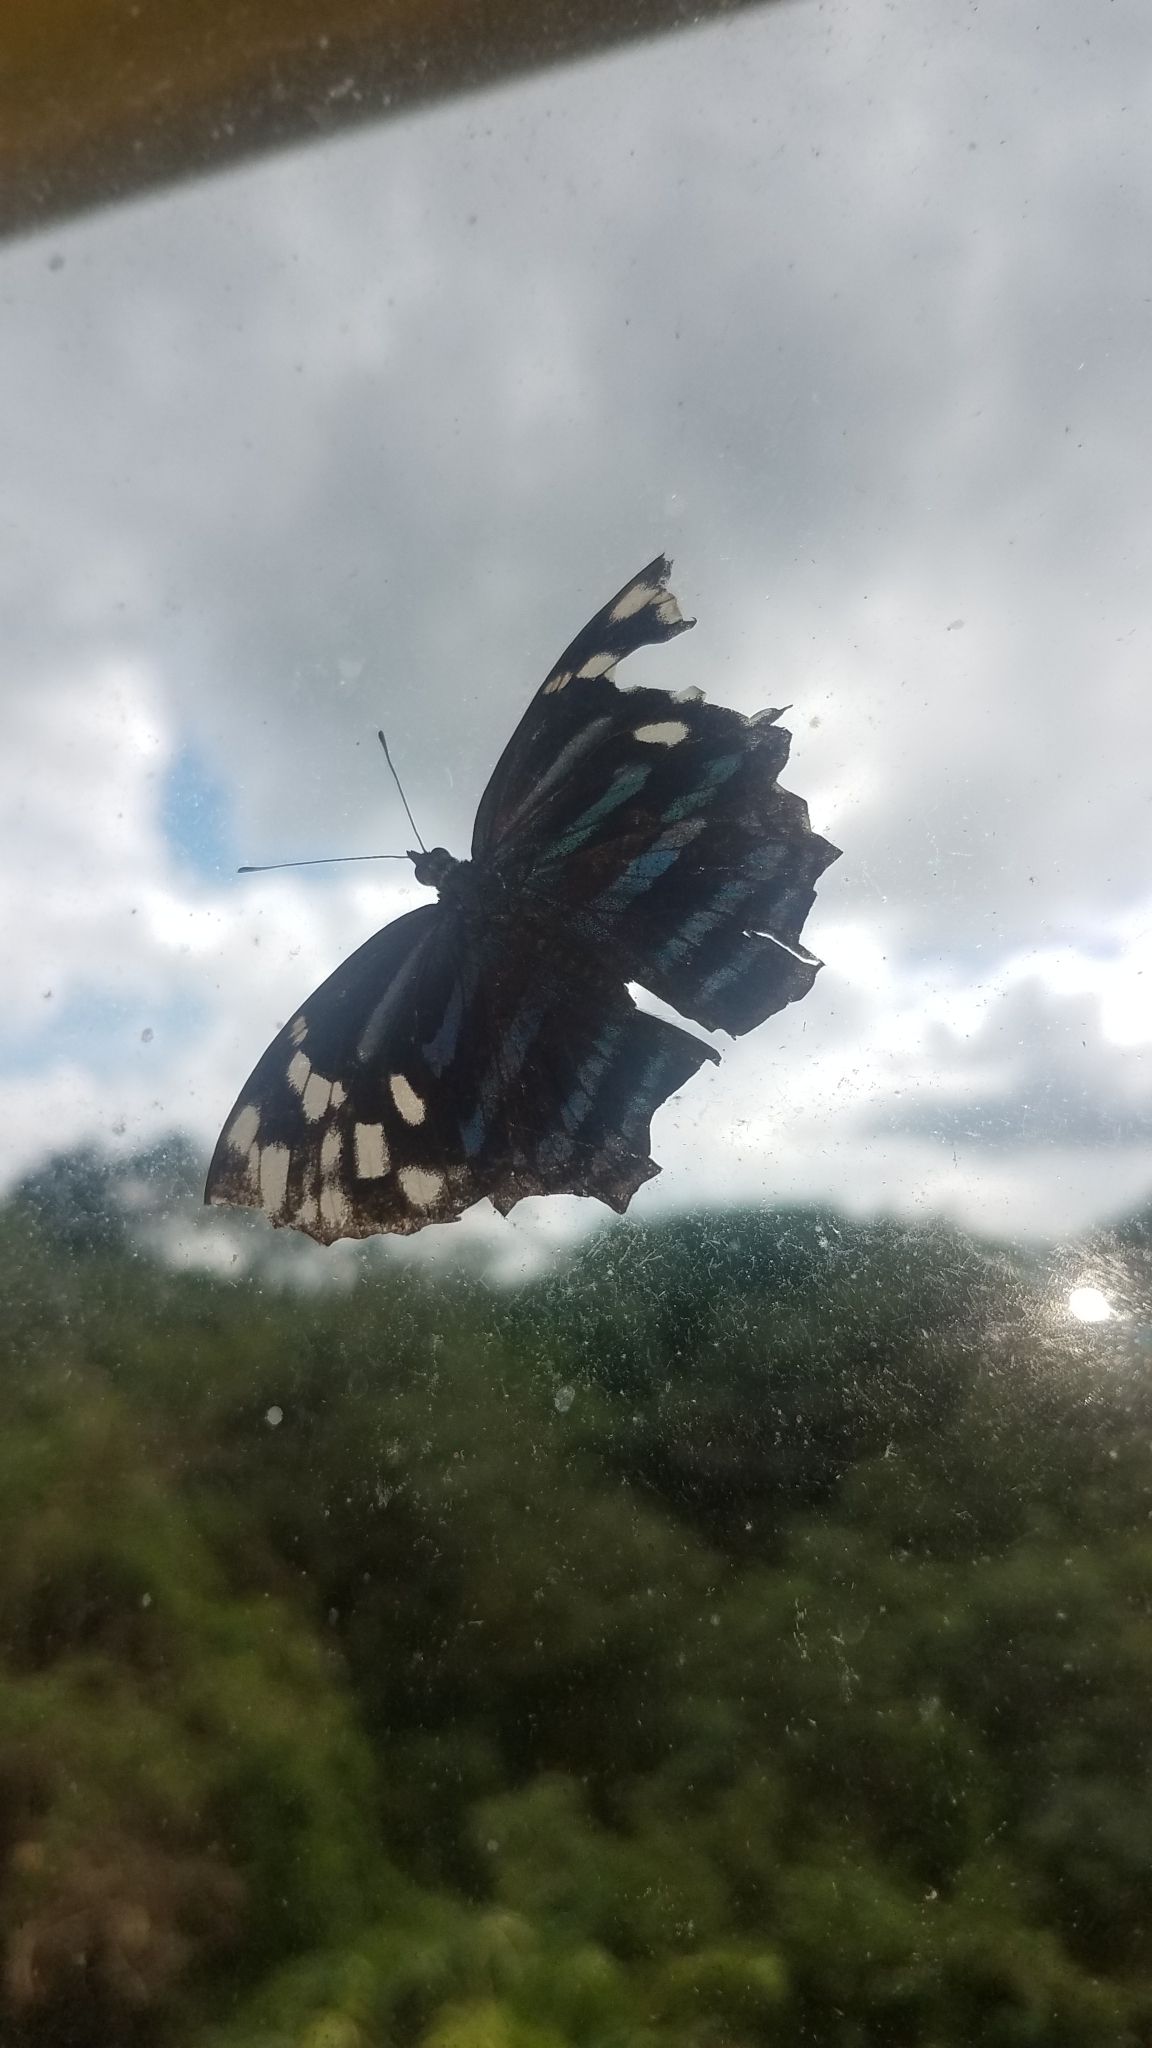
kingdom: Animalia
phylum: Arthropoda
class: Insecta
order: Lepidoptera
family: Nymphalidae
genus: Myscelia
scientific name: Myscelia ethusa
